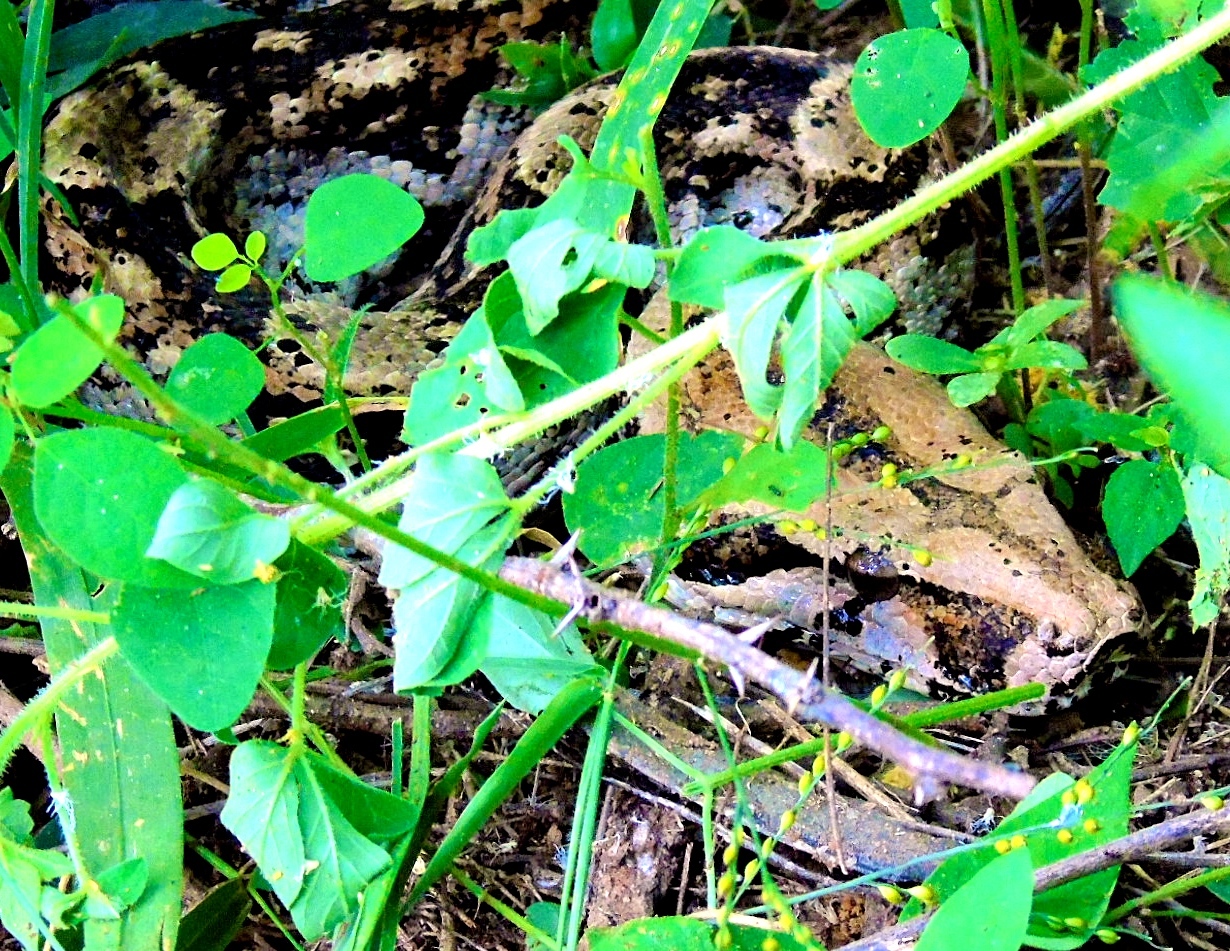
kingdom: Animalia
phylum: Chordata
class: Squamata
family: Boidae
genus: Boa
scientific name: Boa
